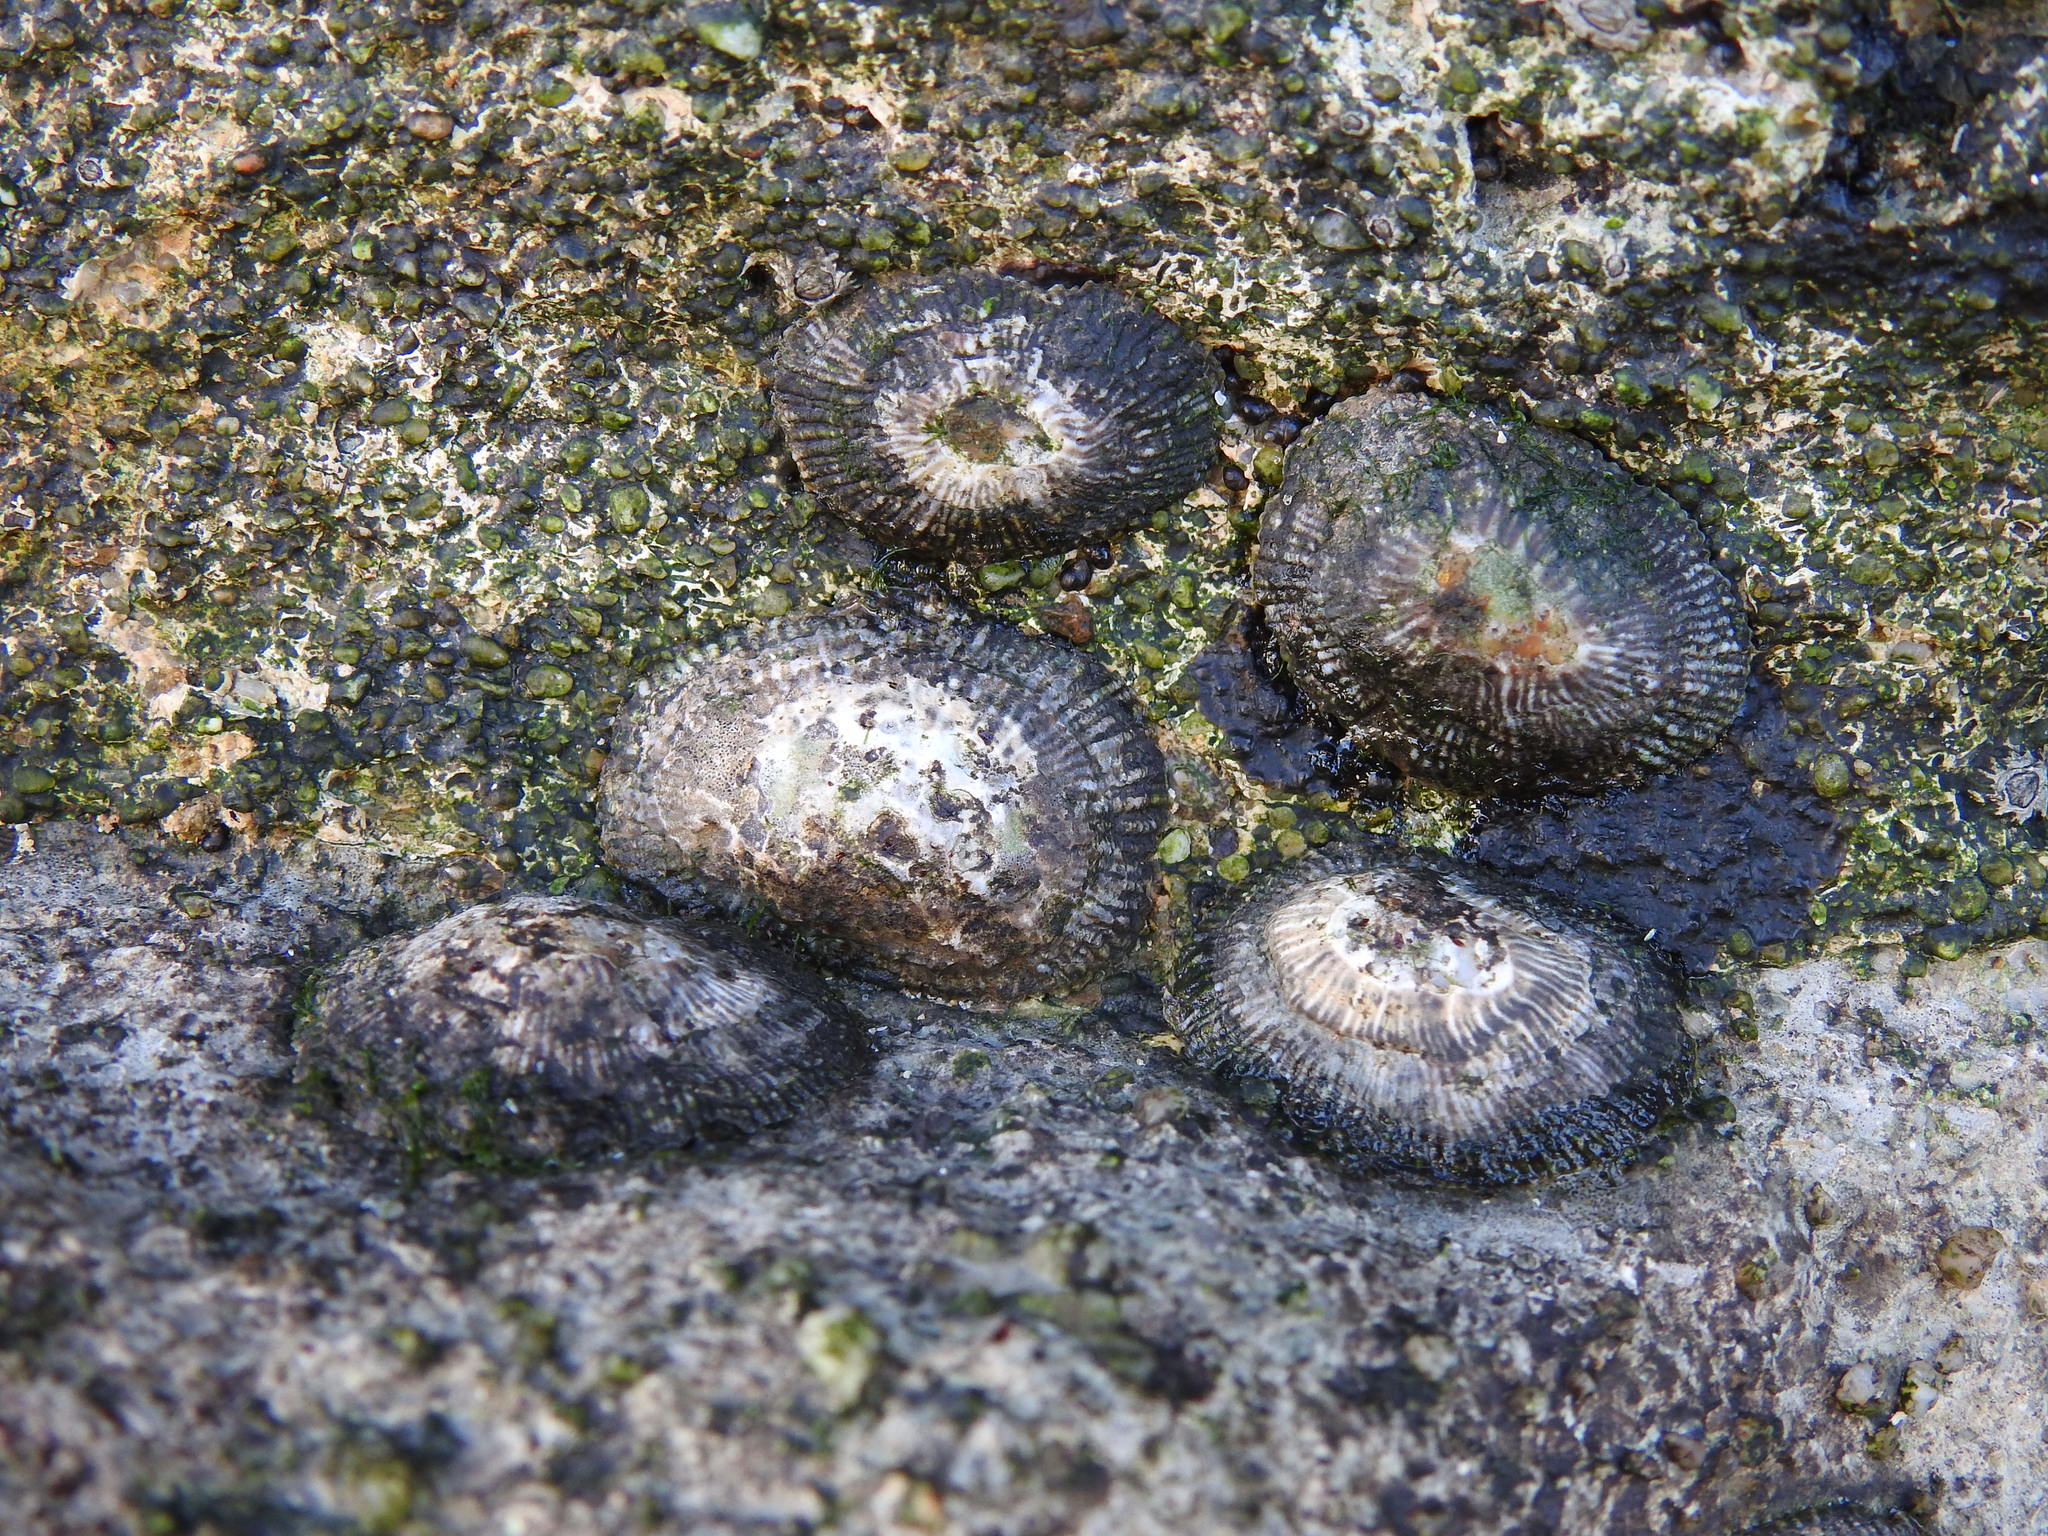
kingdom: Animalia
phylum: Mollusca
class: Gastropoda
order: Siphonariida
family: Siphonariidae
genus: Siphonaria
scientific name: Siphonaria pectinata
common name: Striped false limpet
